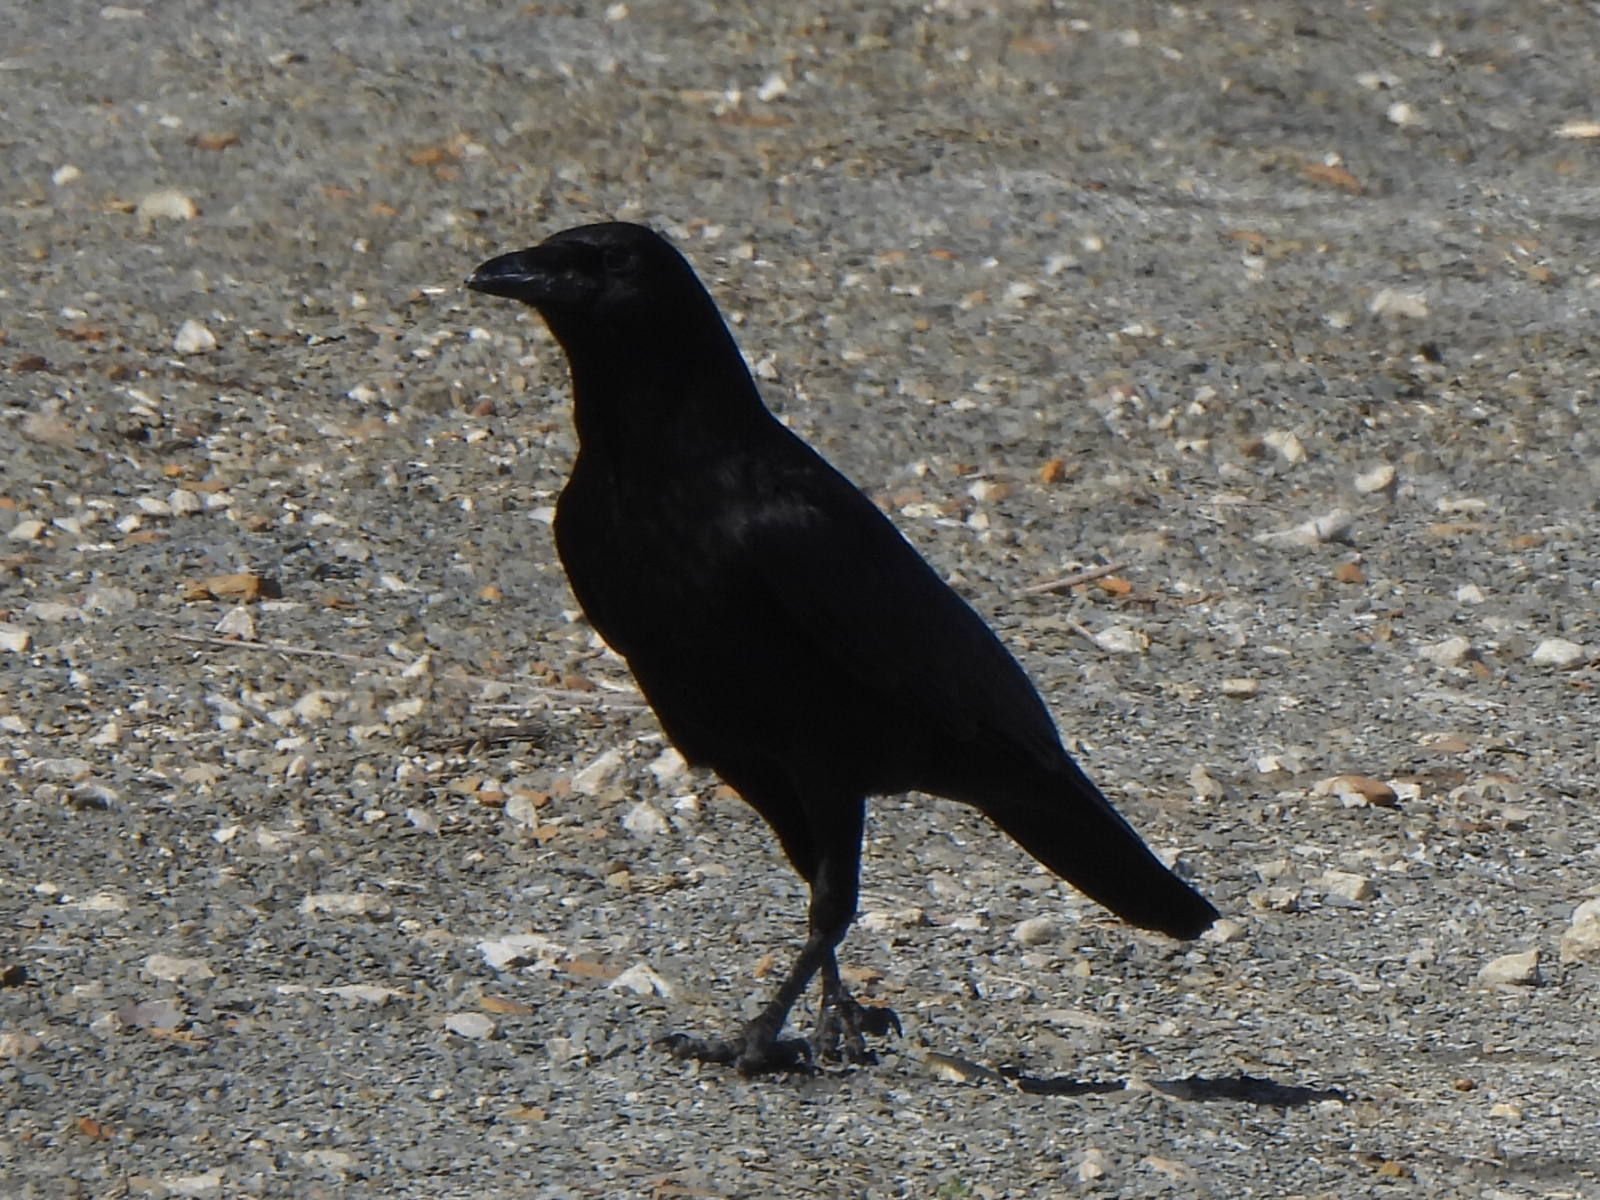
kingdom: Animalia
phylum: Chordata
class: Aves
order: Passeriformes
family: Corvidae
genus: Corvus
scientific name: Corvus brachyrhynchos
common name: American crow
